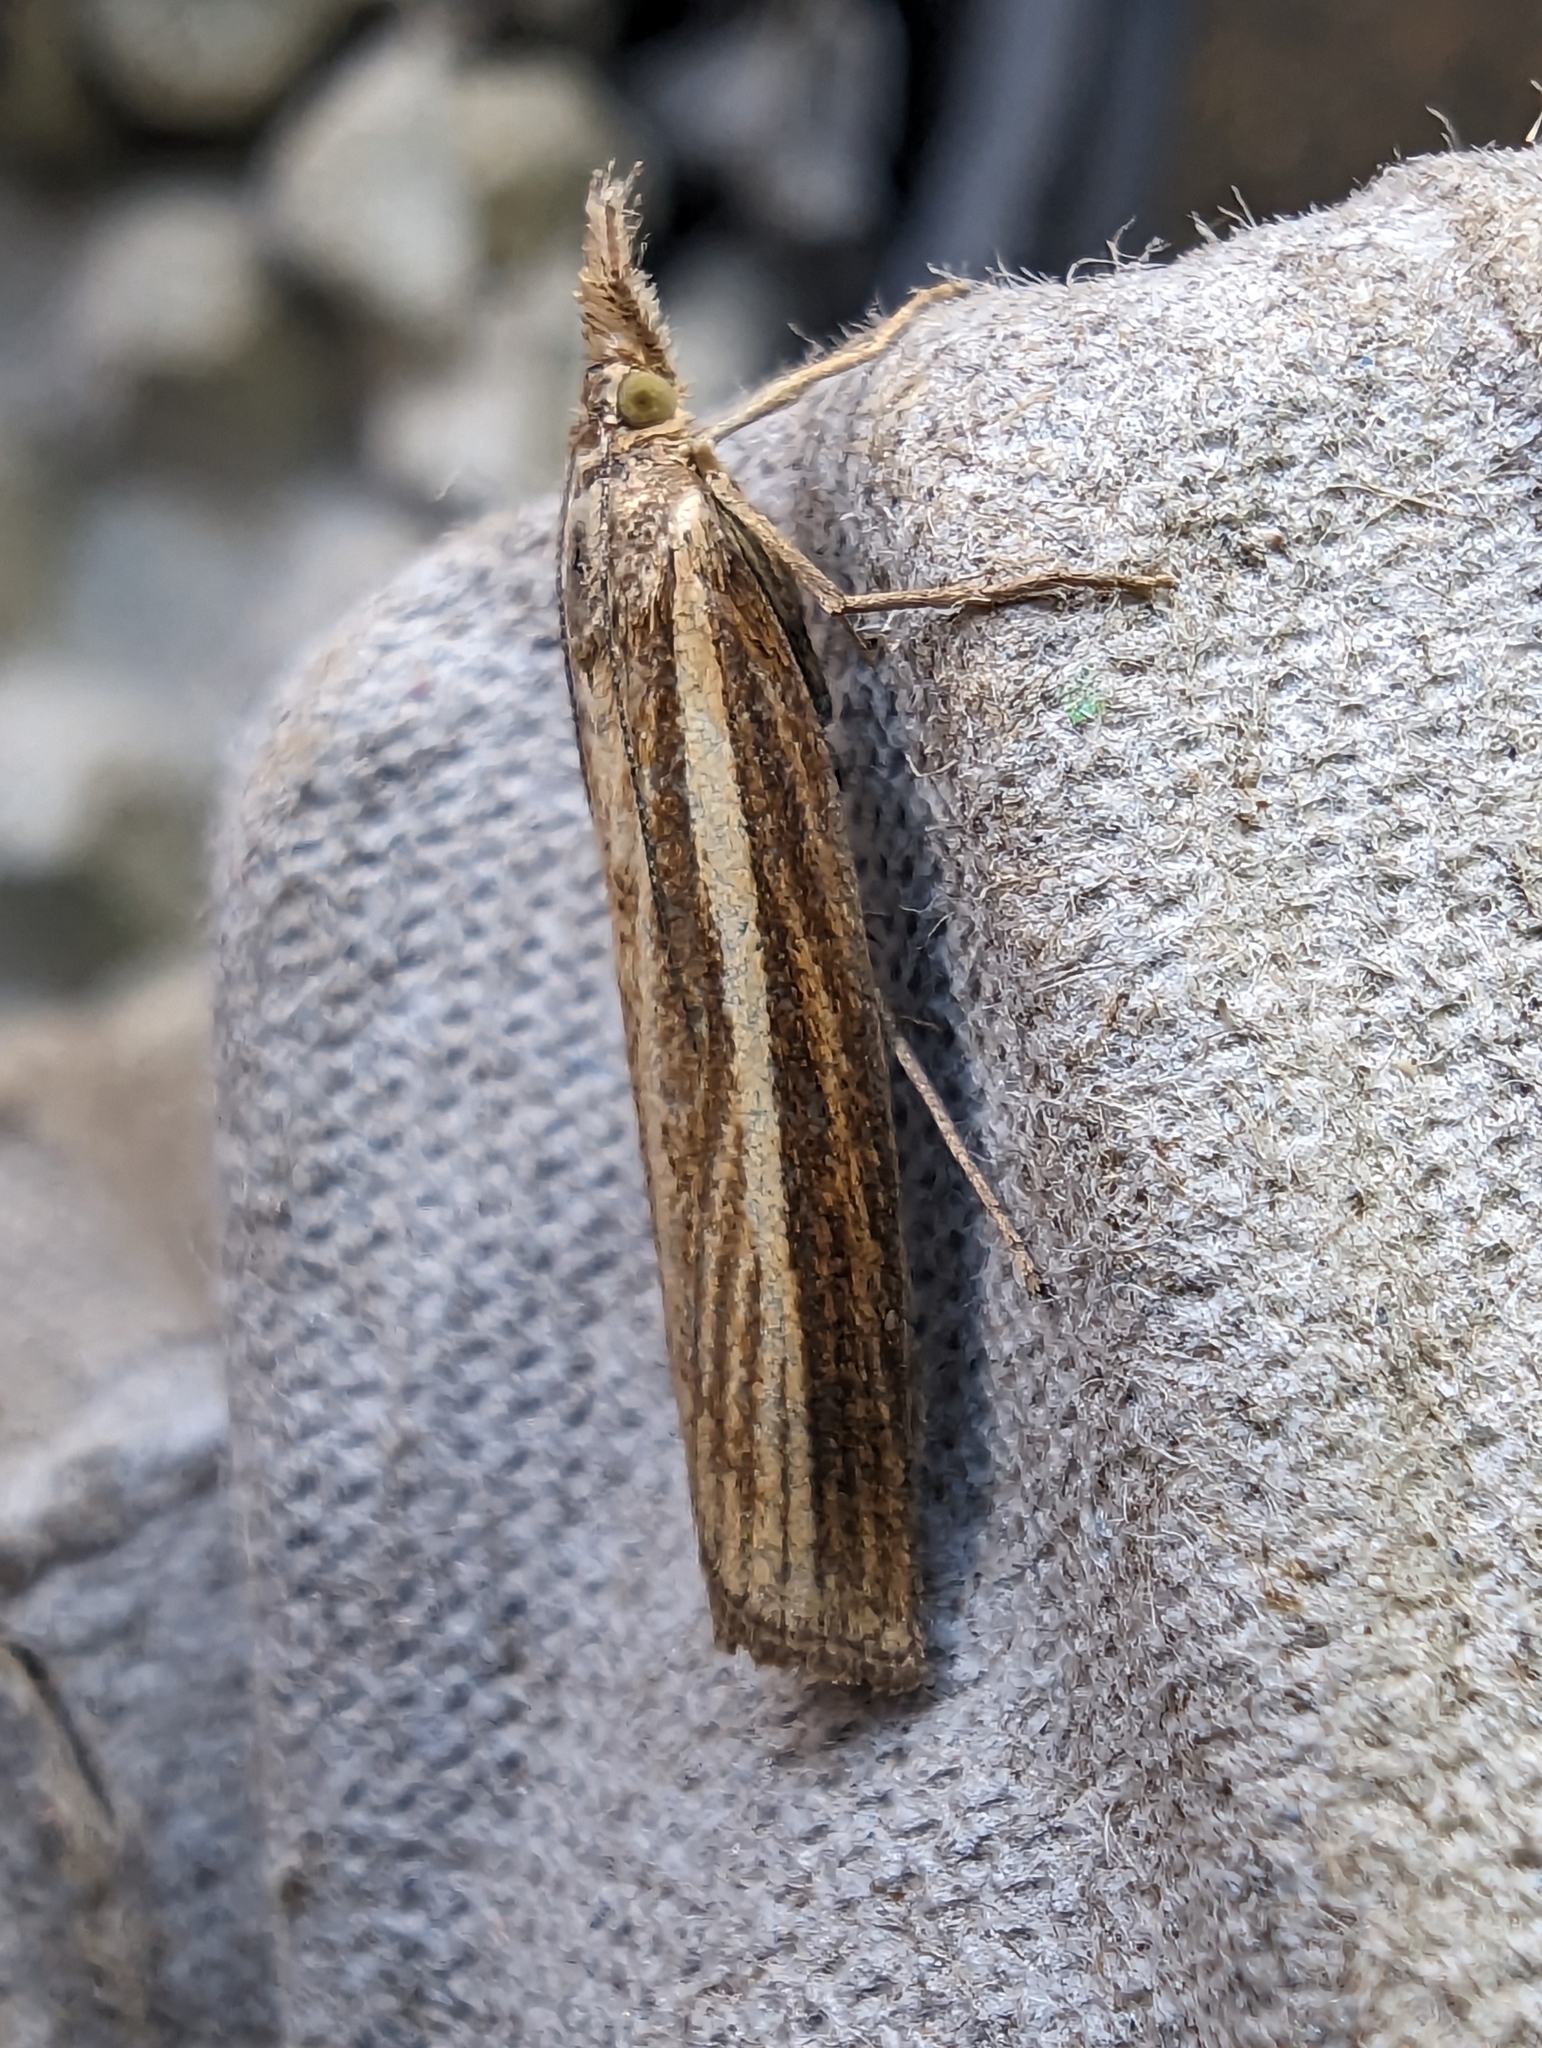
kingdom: Animalia
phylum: Arthropoda
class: Insecta
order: Lepidoptera
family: Crambidae
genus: Agriphila
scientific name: Agriphila tristellus
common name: Common grass-veneer
